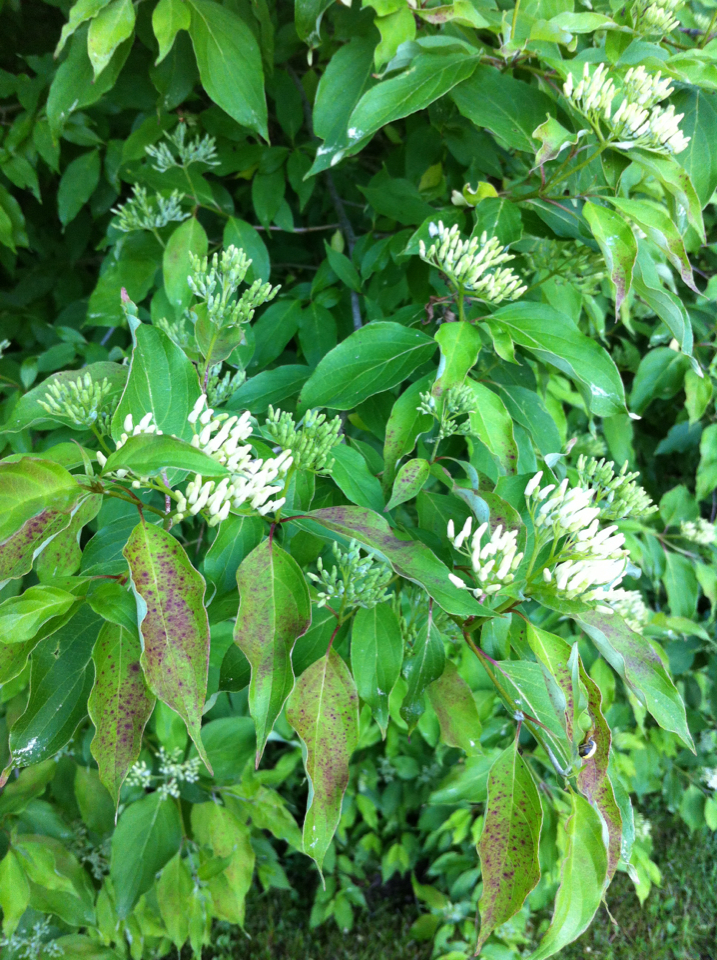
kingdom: Plantae
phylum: Tracheophyta
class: Magnoliopsida
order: Cornales
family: Cornaceae
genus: Cornus
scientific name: Cornus amomum
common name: Silky dogwood
